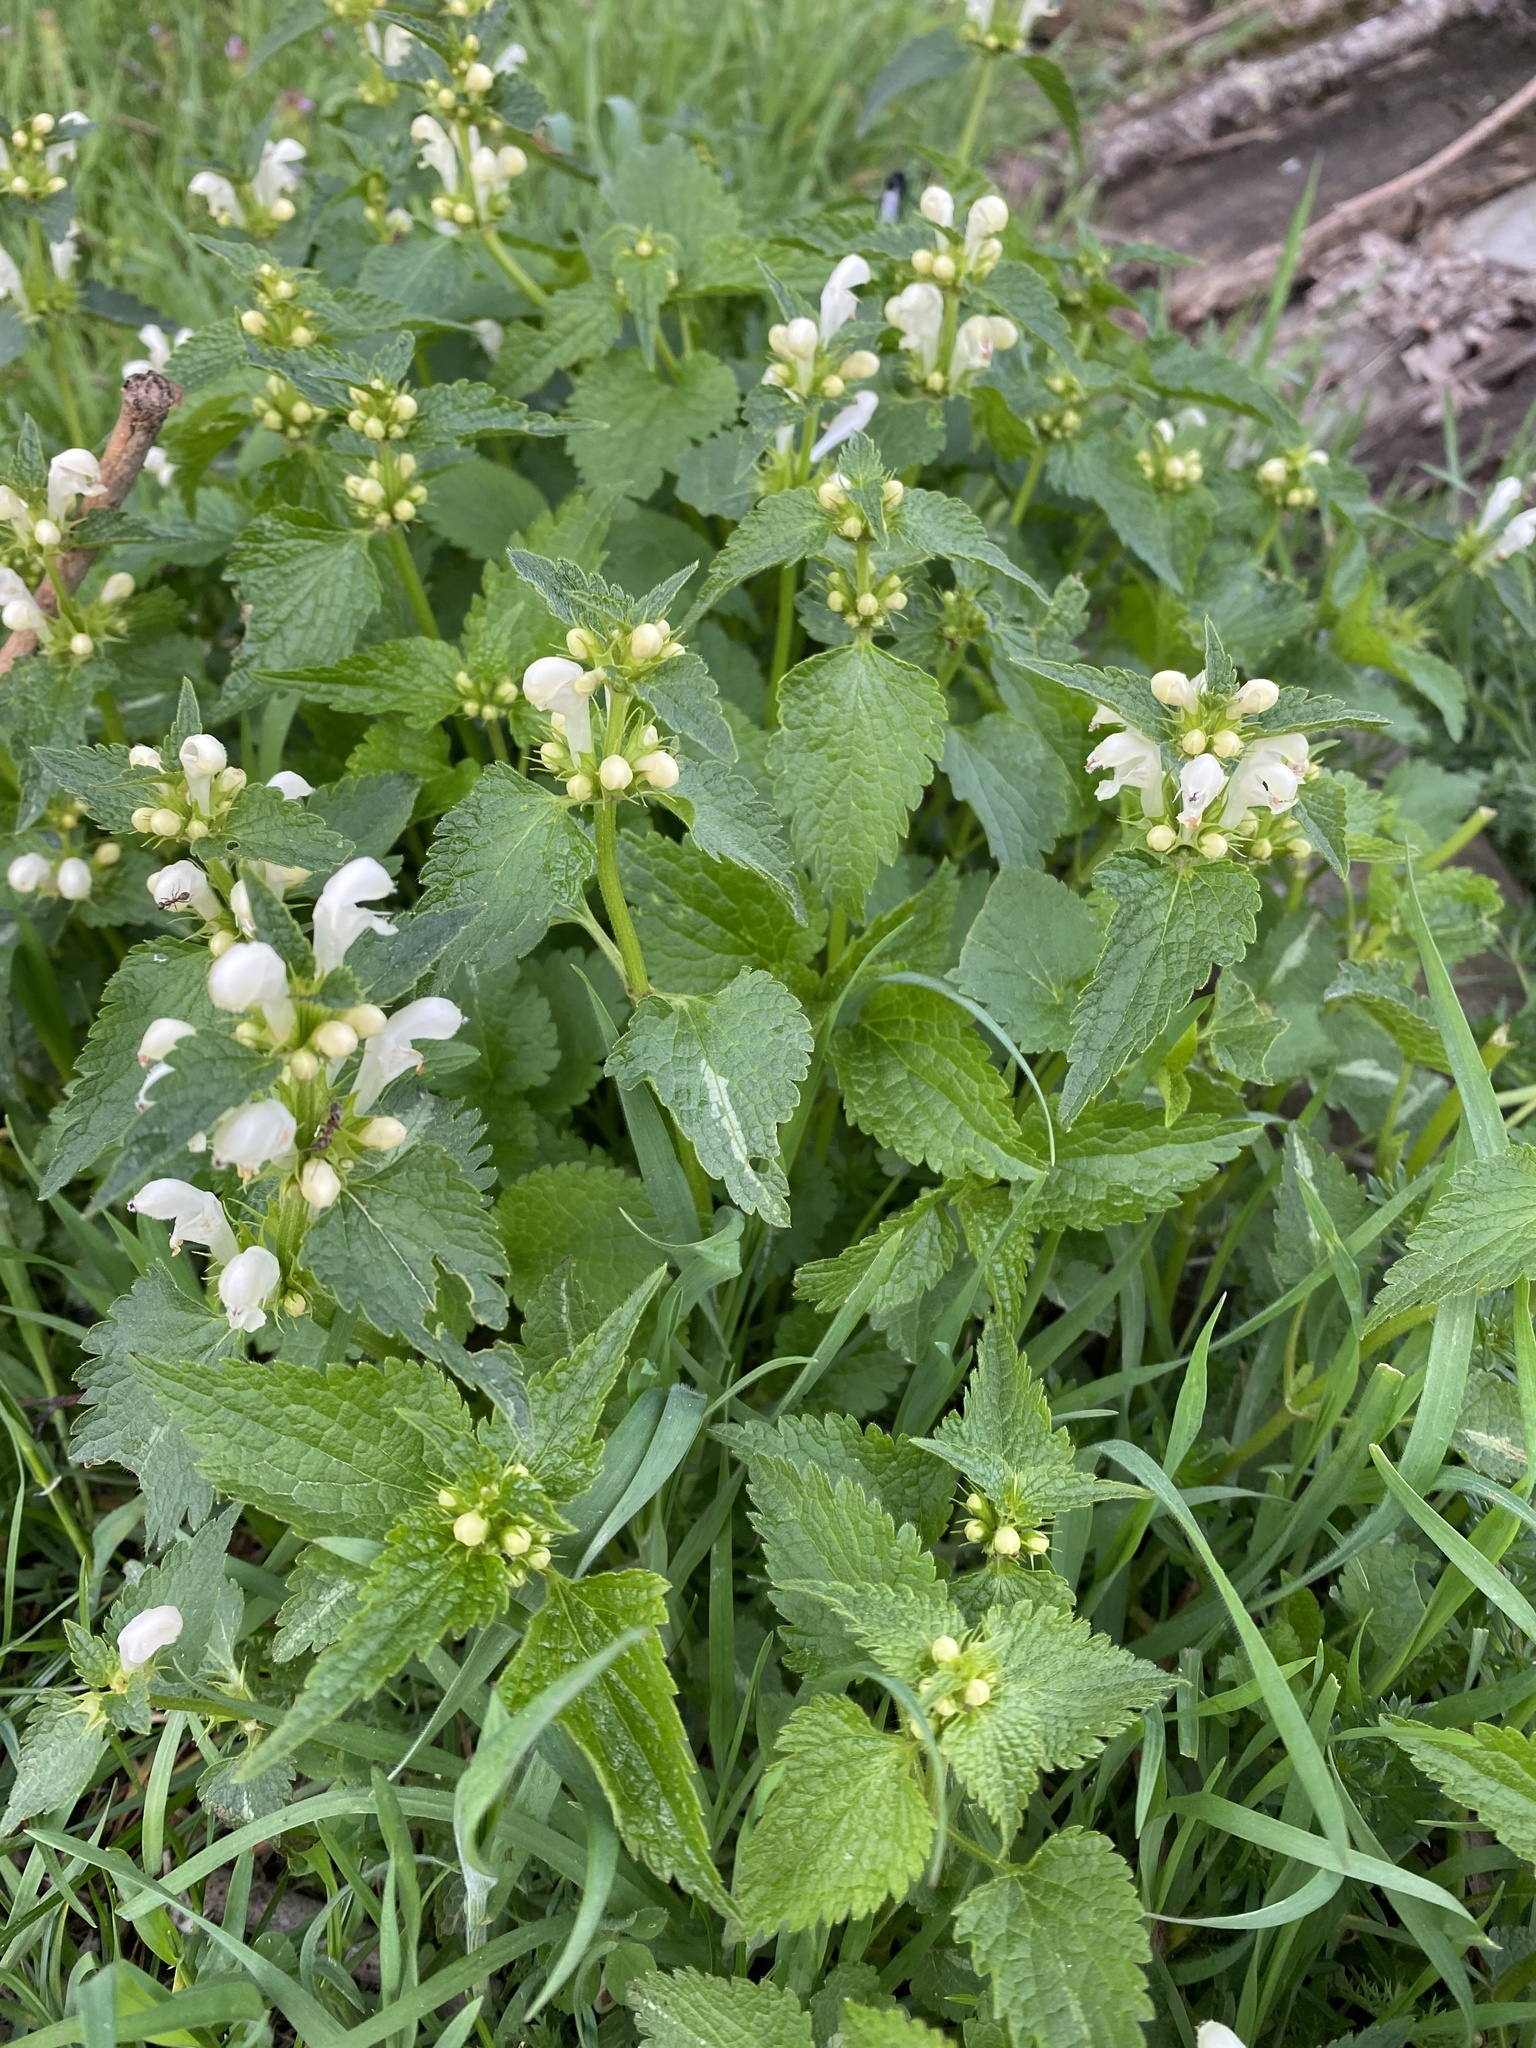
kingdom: Plantae
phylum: Tracheophyta
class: Magnoliopsida
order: Lamiales
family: Lamiaceae
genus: Lamium
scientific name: Lamium album
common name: White dead-nettle
